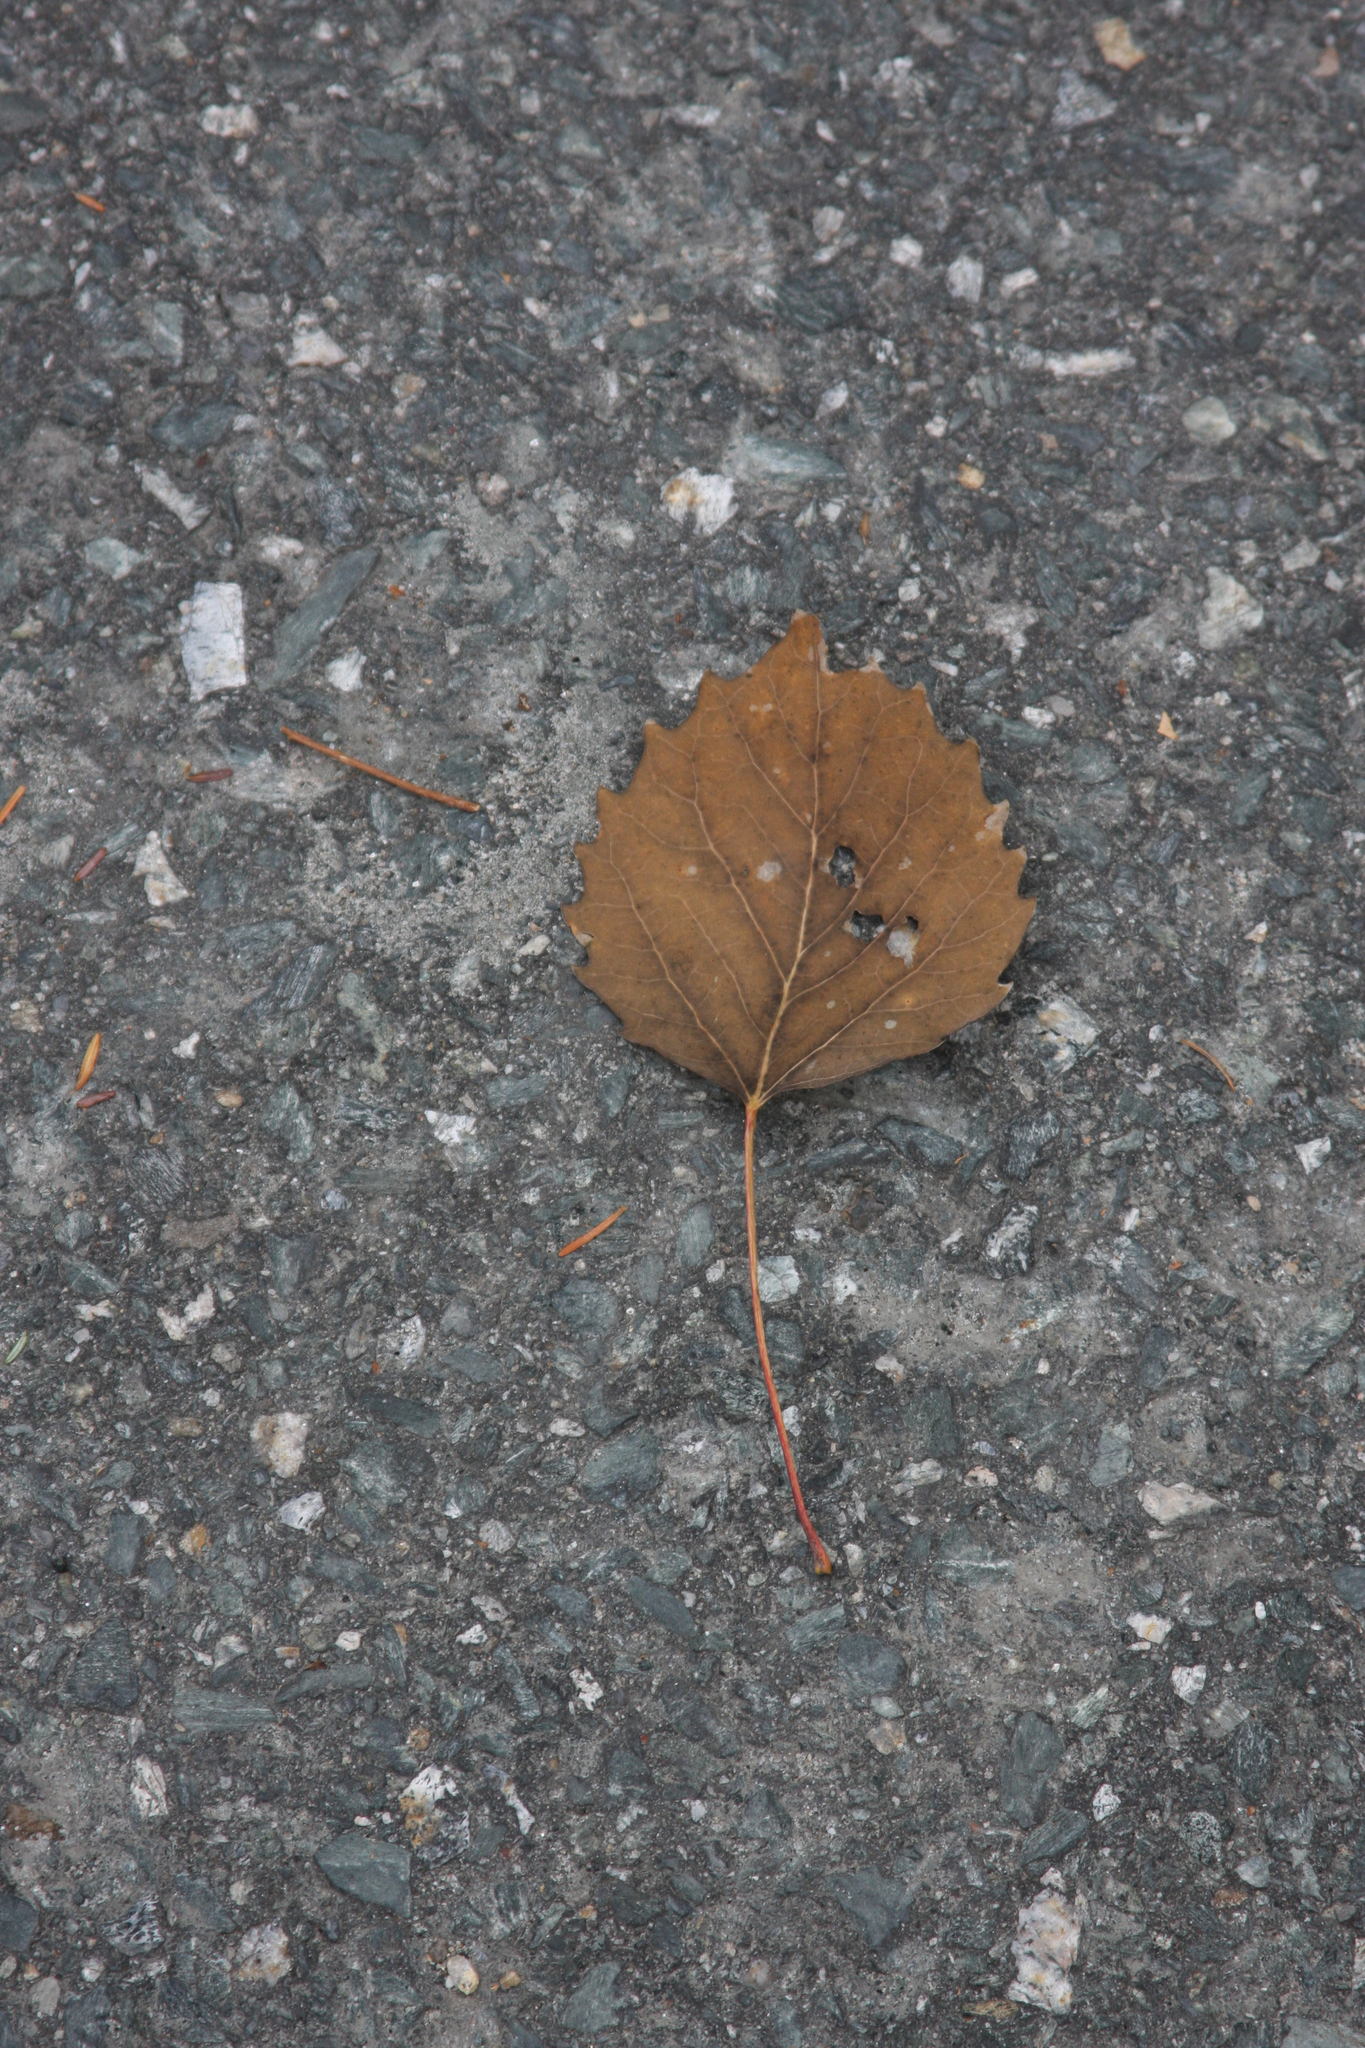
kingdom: Plantae
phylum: Tracheophyta
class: Magnoliopsida
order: Malpighiales
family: Salicaceae
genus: Populus
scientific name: Populus grandidentata
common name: Bigtooth aspen
